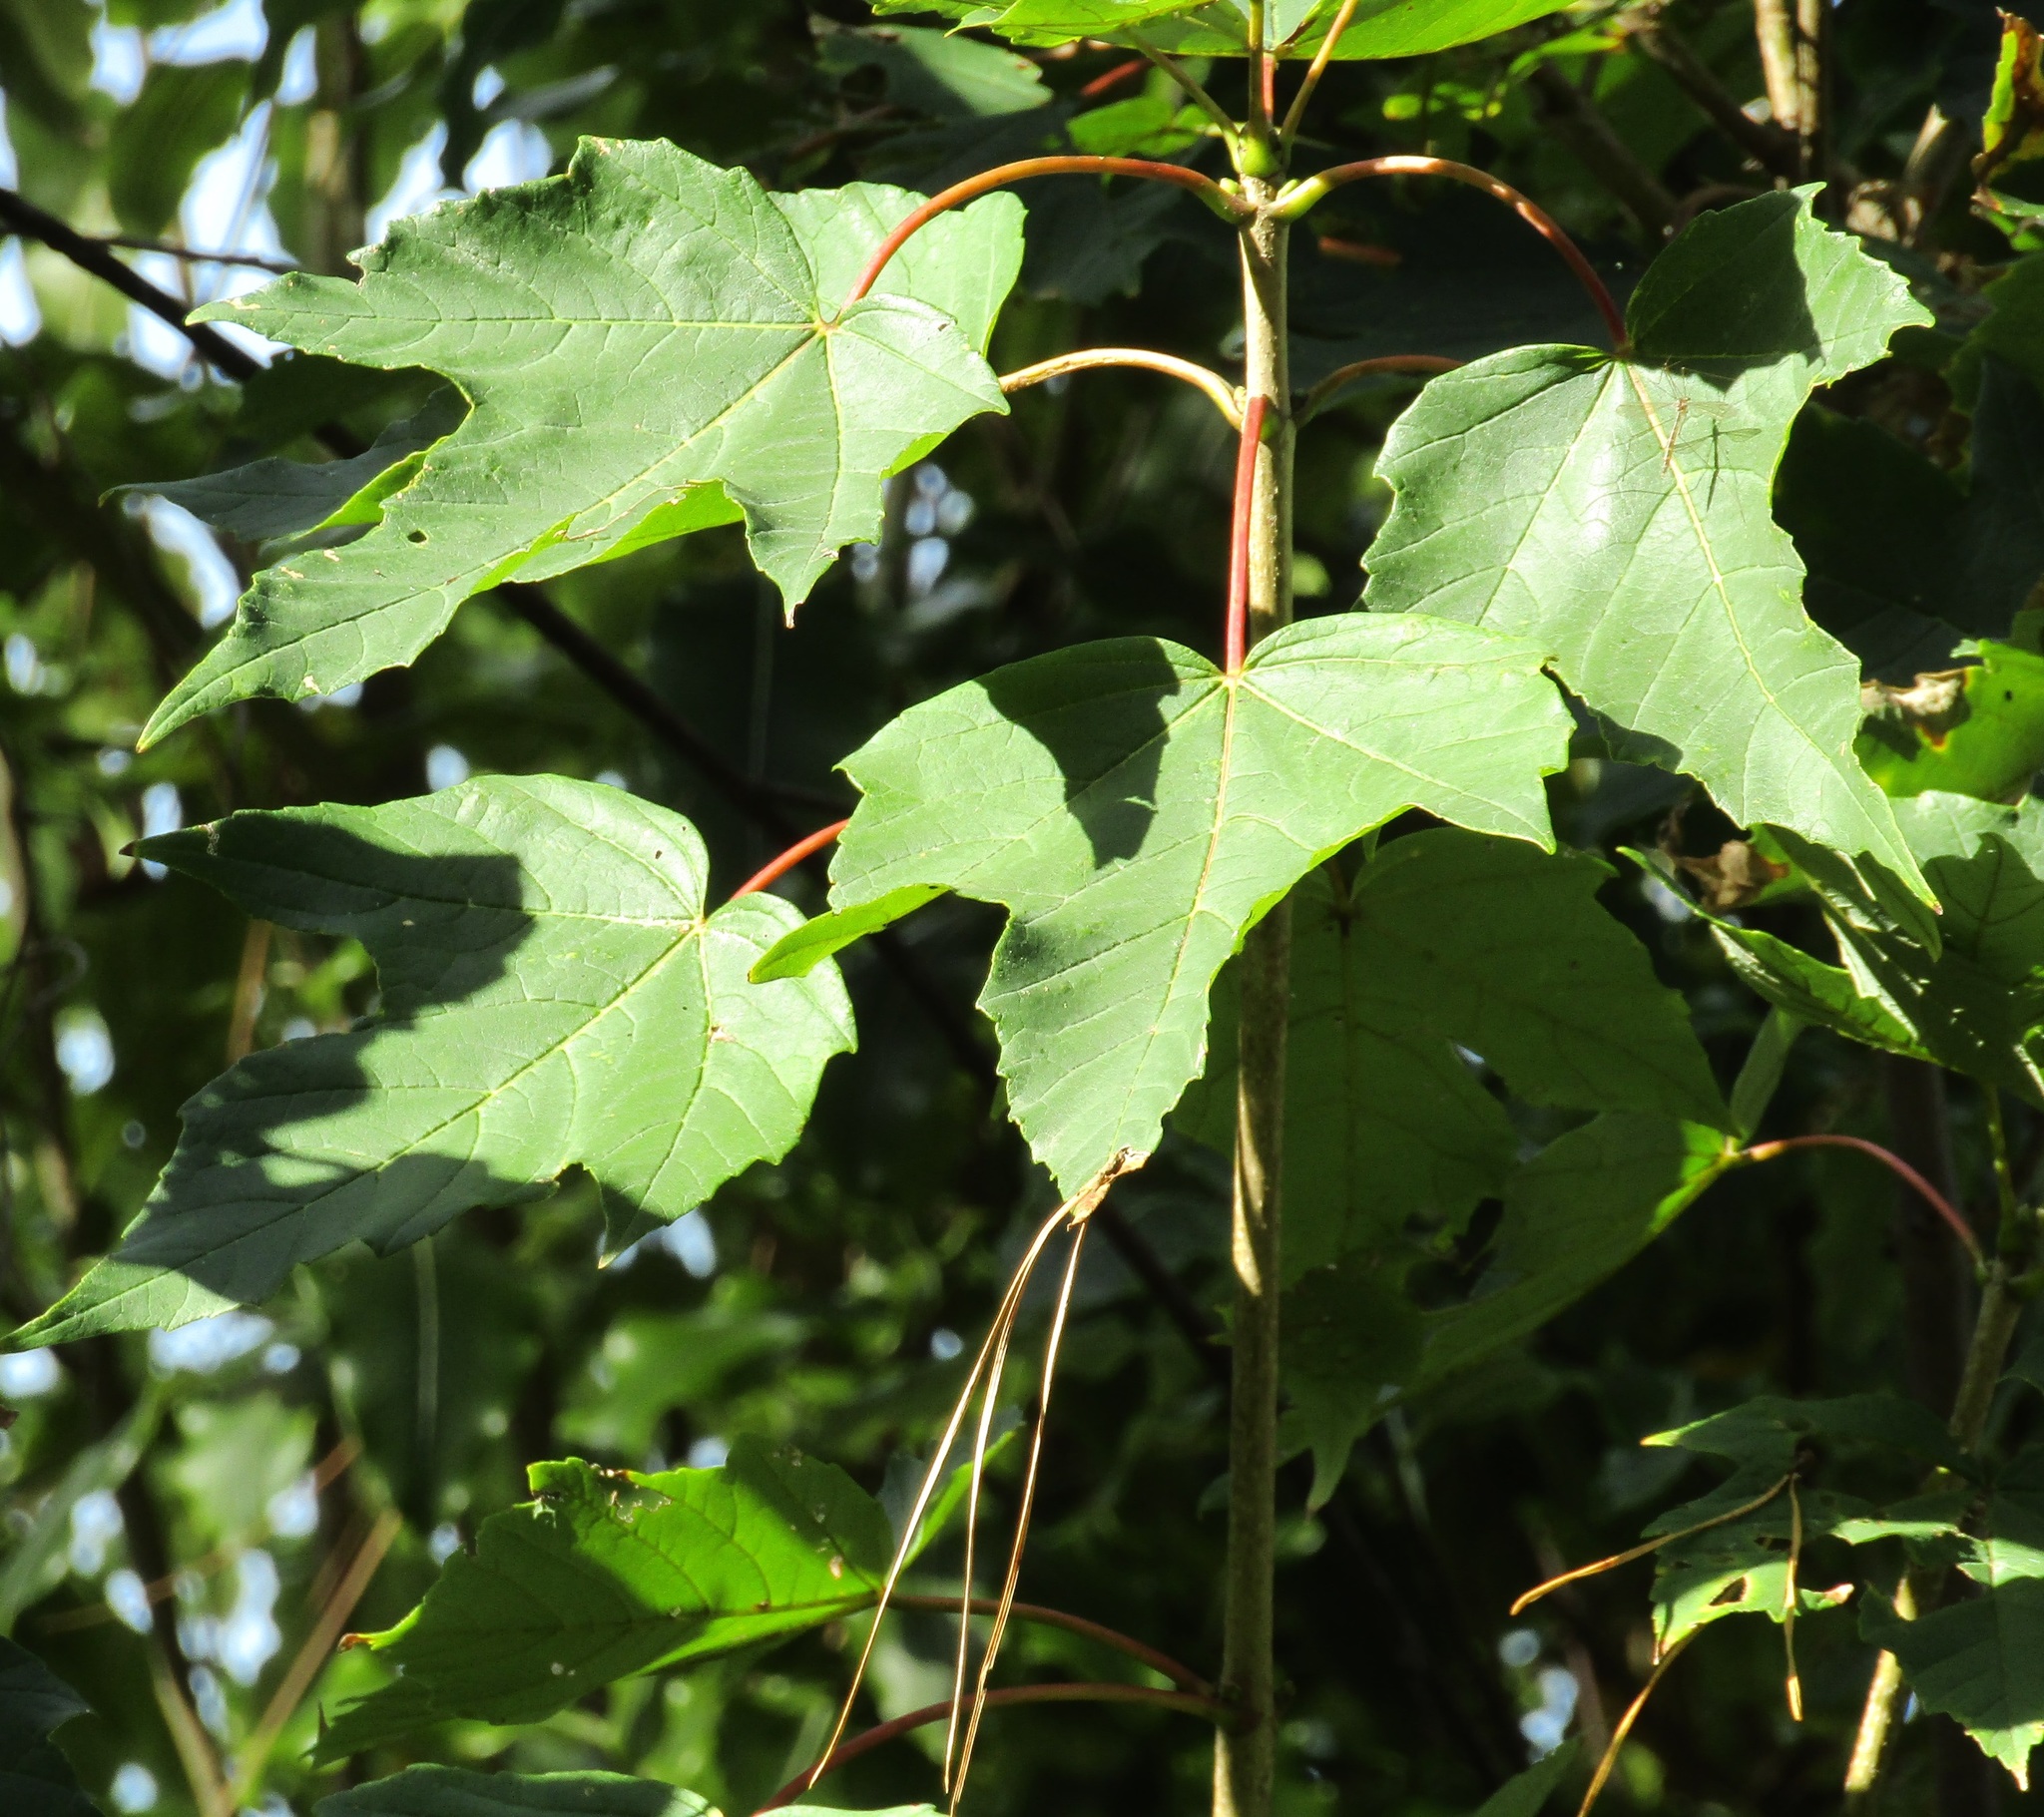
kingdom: Plantae
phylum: Tracheophyta
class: Magnoliopsida
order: Sapindales
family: Sapindaceae
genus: Acer
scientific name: Acer pseudoplatanus
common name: Sycamore
